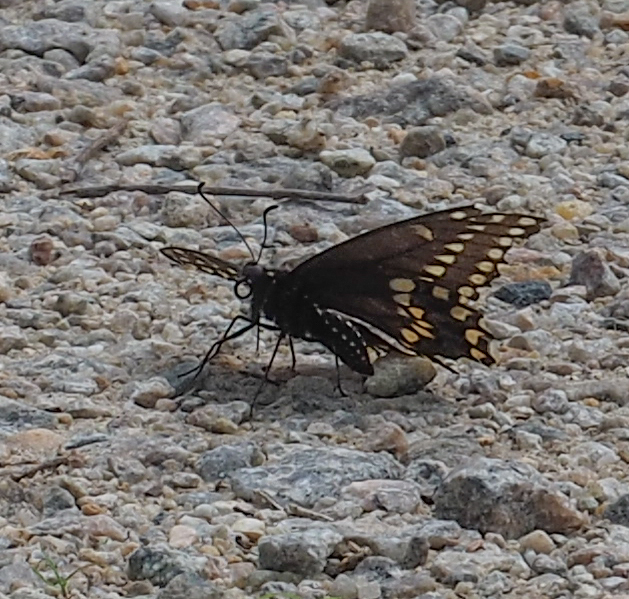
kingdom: Animalia
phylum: Arthropoda
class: Insecta
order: Lepidoptera
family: Papilionidae
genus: Papilio
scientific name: Papilio polyxenes
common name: Black swallowtail
